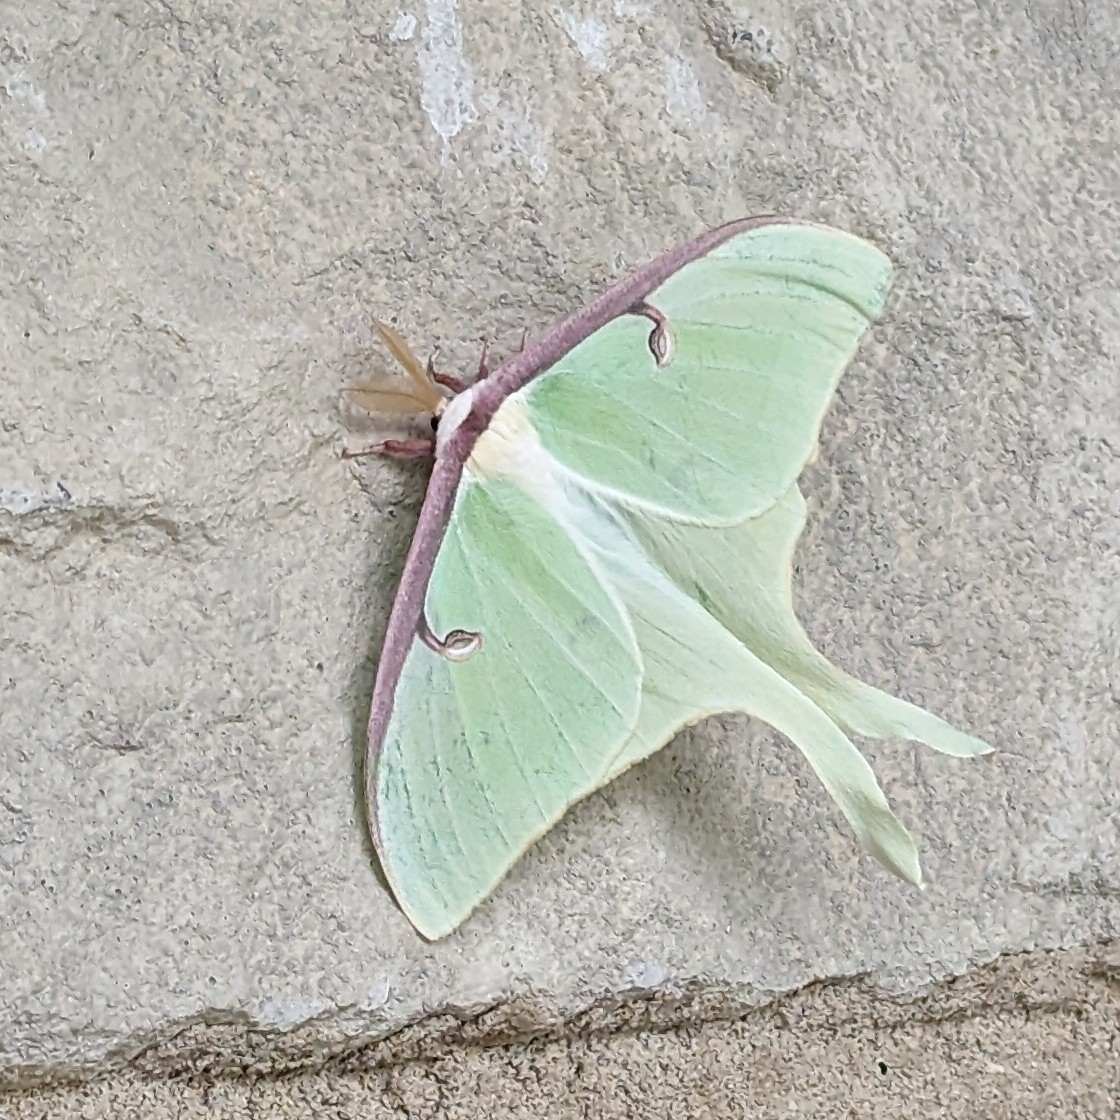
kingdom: Animalia
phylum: Arthropoda
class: Insecta
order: Lepidoptera
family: Saturniidae
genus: Actias
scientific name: Actias luna
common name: Luna moth
